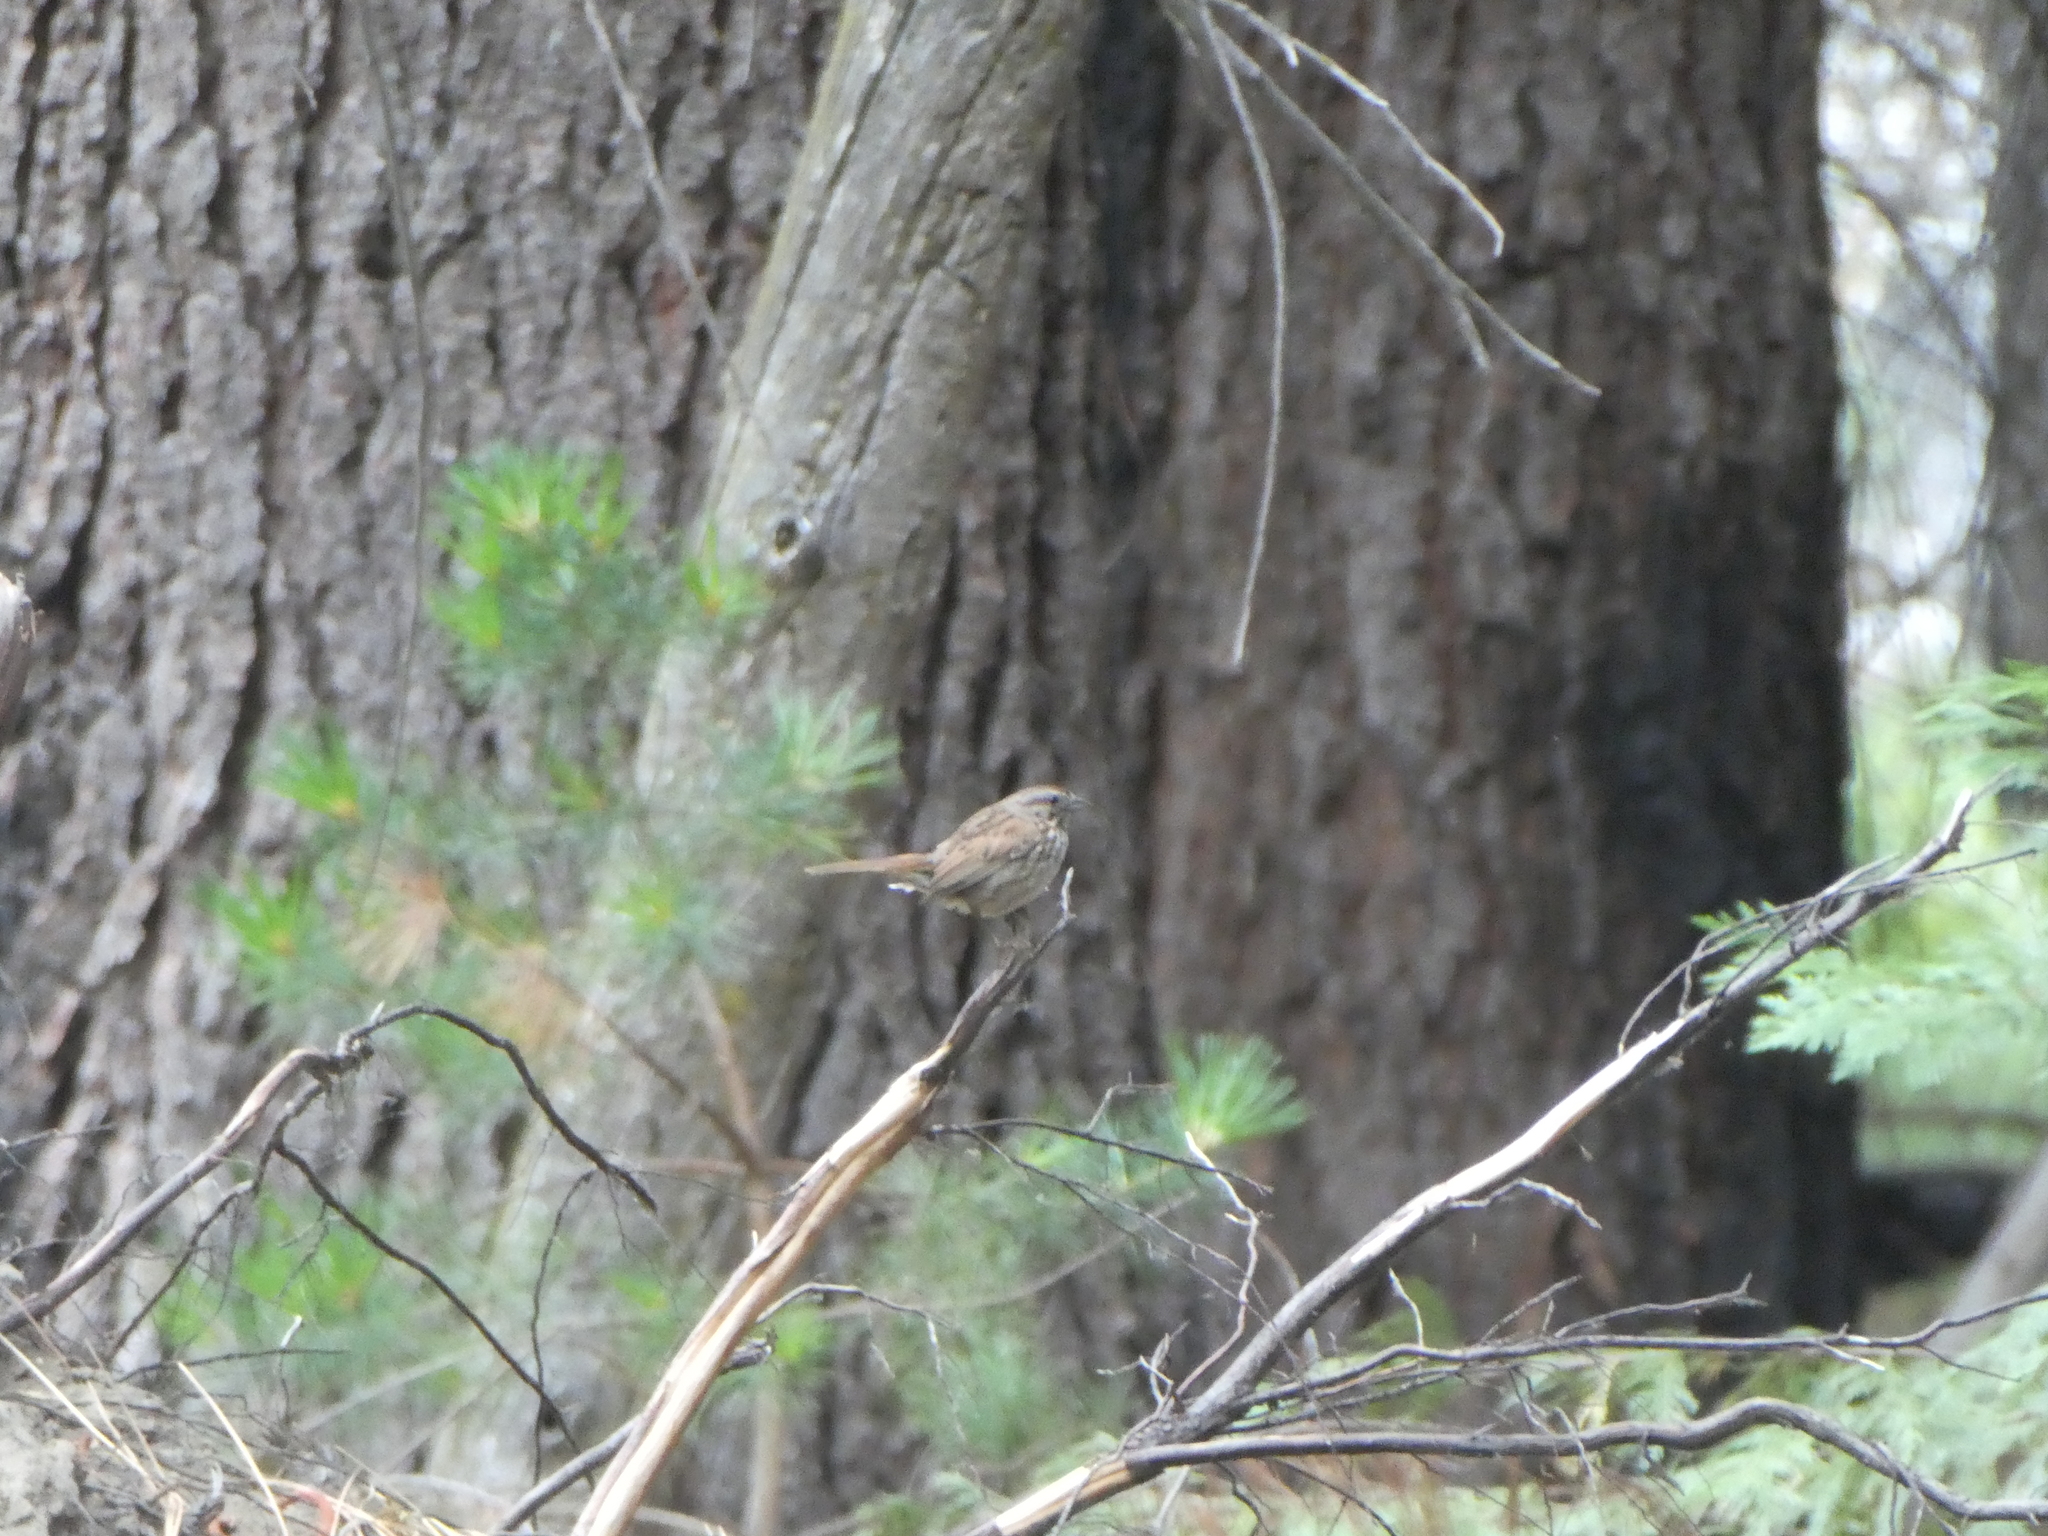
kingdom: Animalia
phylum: Chordata
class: Aves
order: Passeriformes
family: Passerellidae
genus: Melospiza
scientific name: Melospiza melodia
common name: Song sparrow
